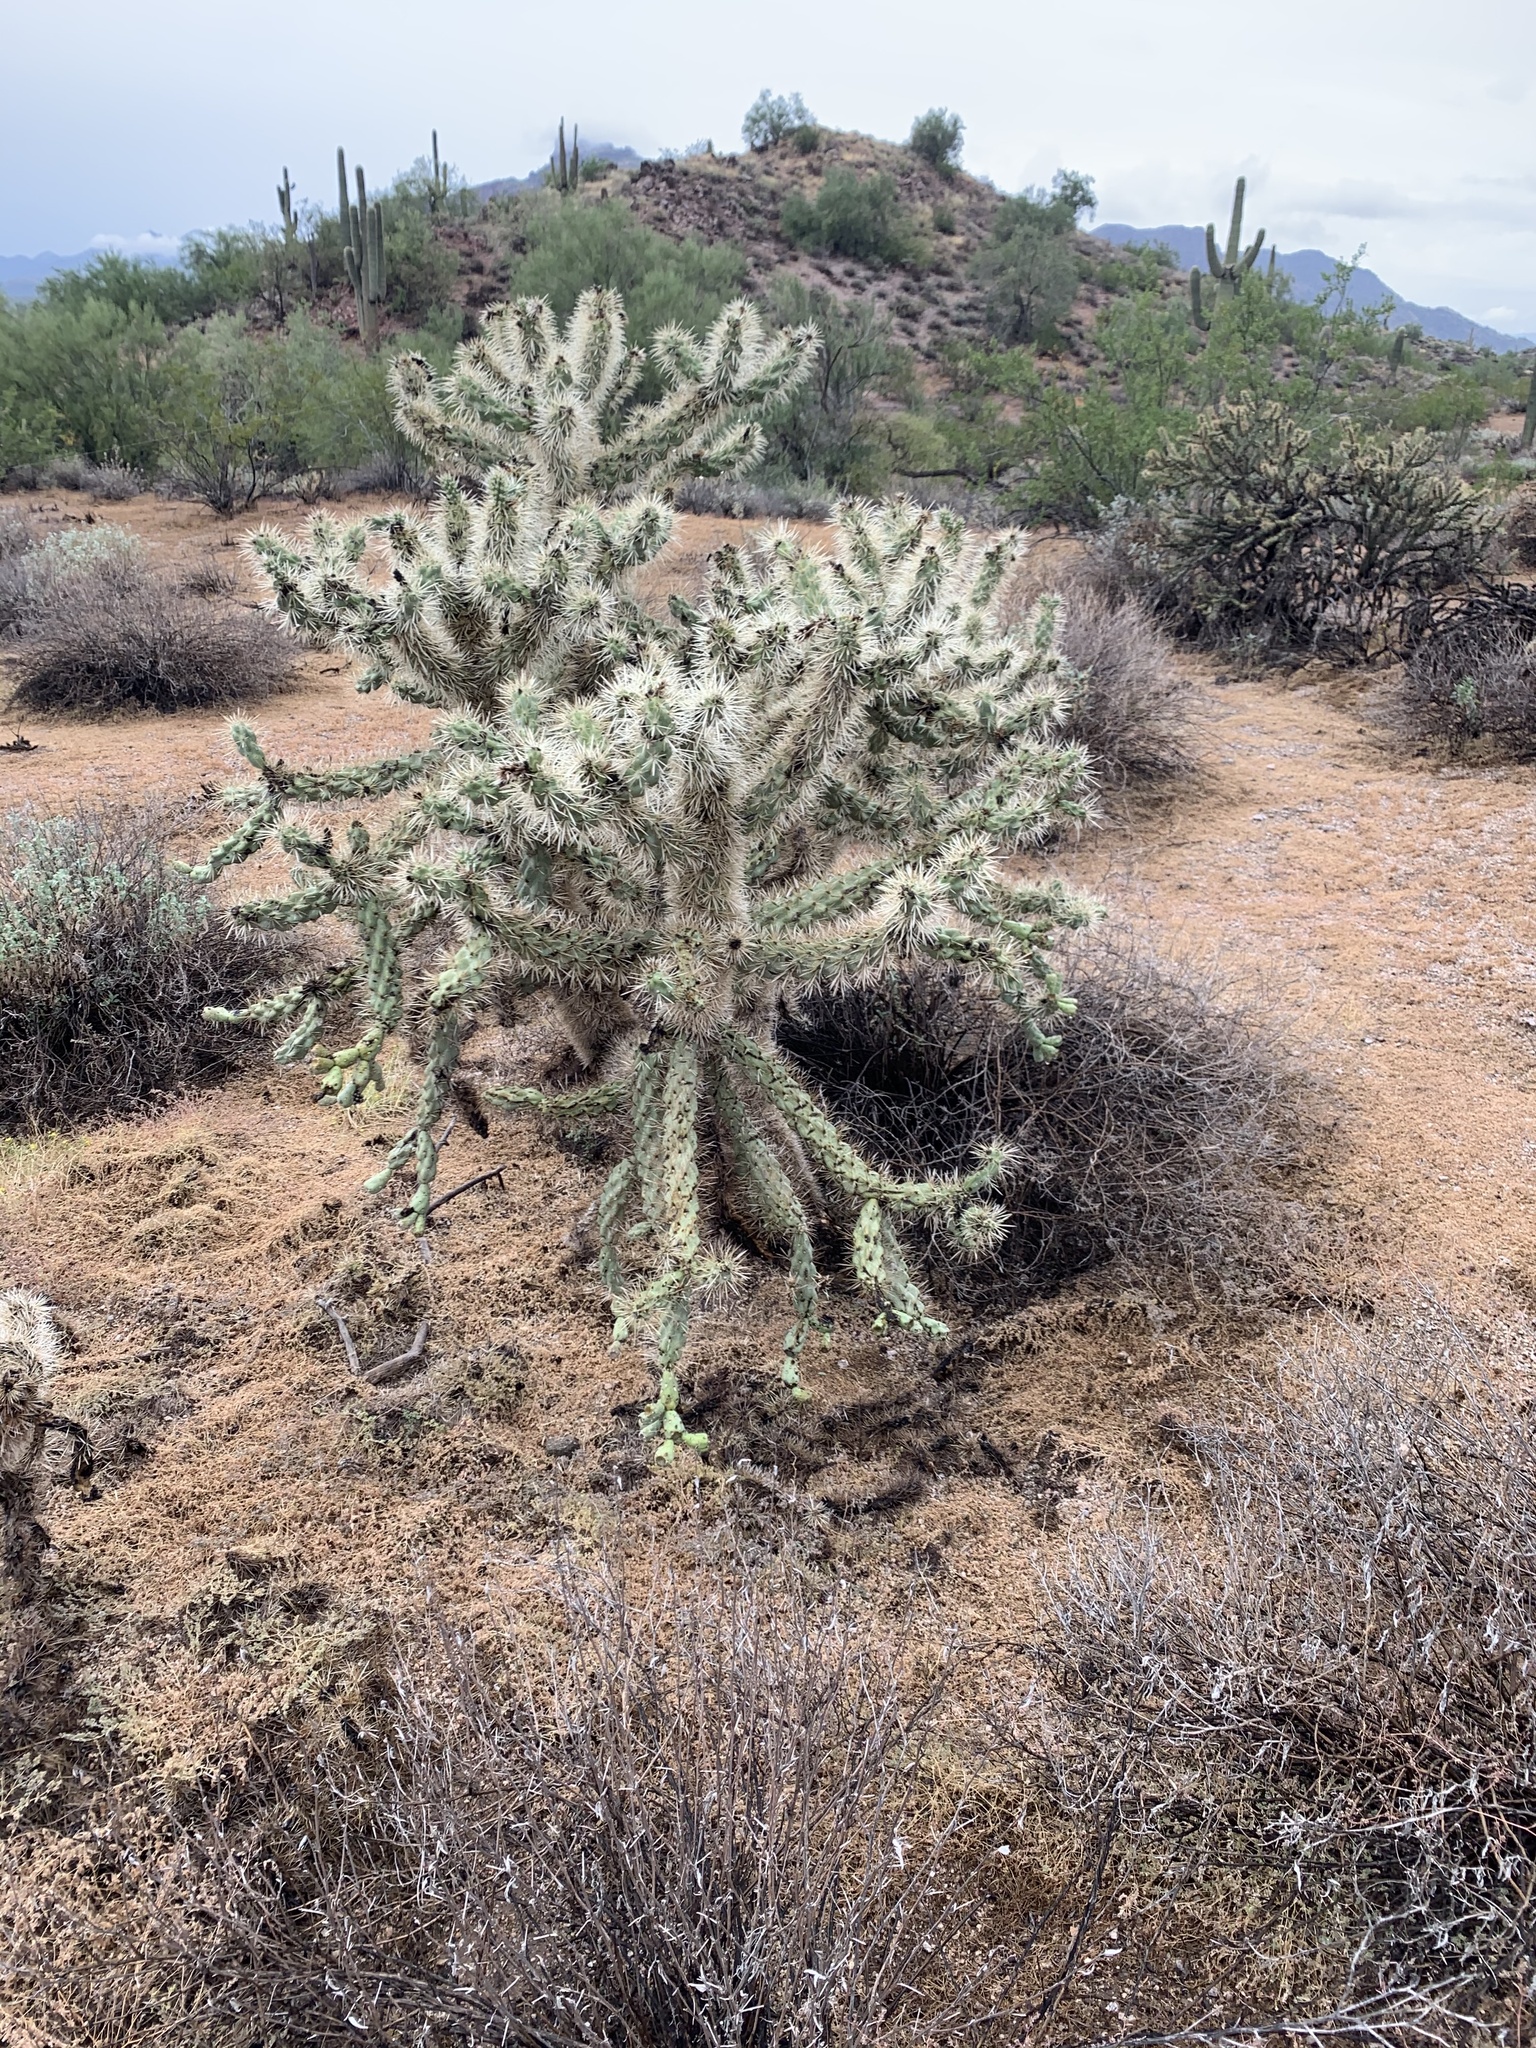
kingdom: Plantae
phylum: Tracheophyta
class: Magnoliopsida
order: Caryophyllales
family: Cactaceae
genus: Cylindropuntia
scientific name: Cylindropuntia acanthocarpa
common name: Buckhorn cholla
